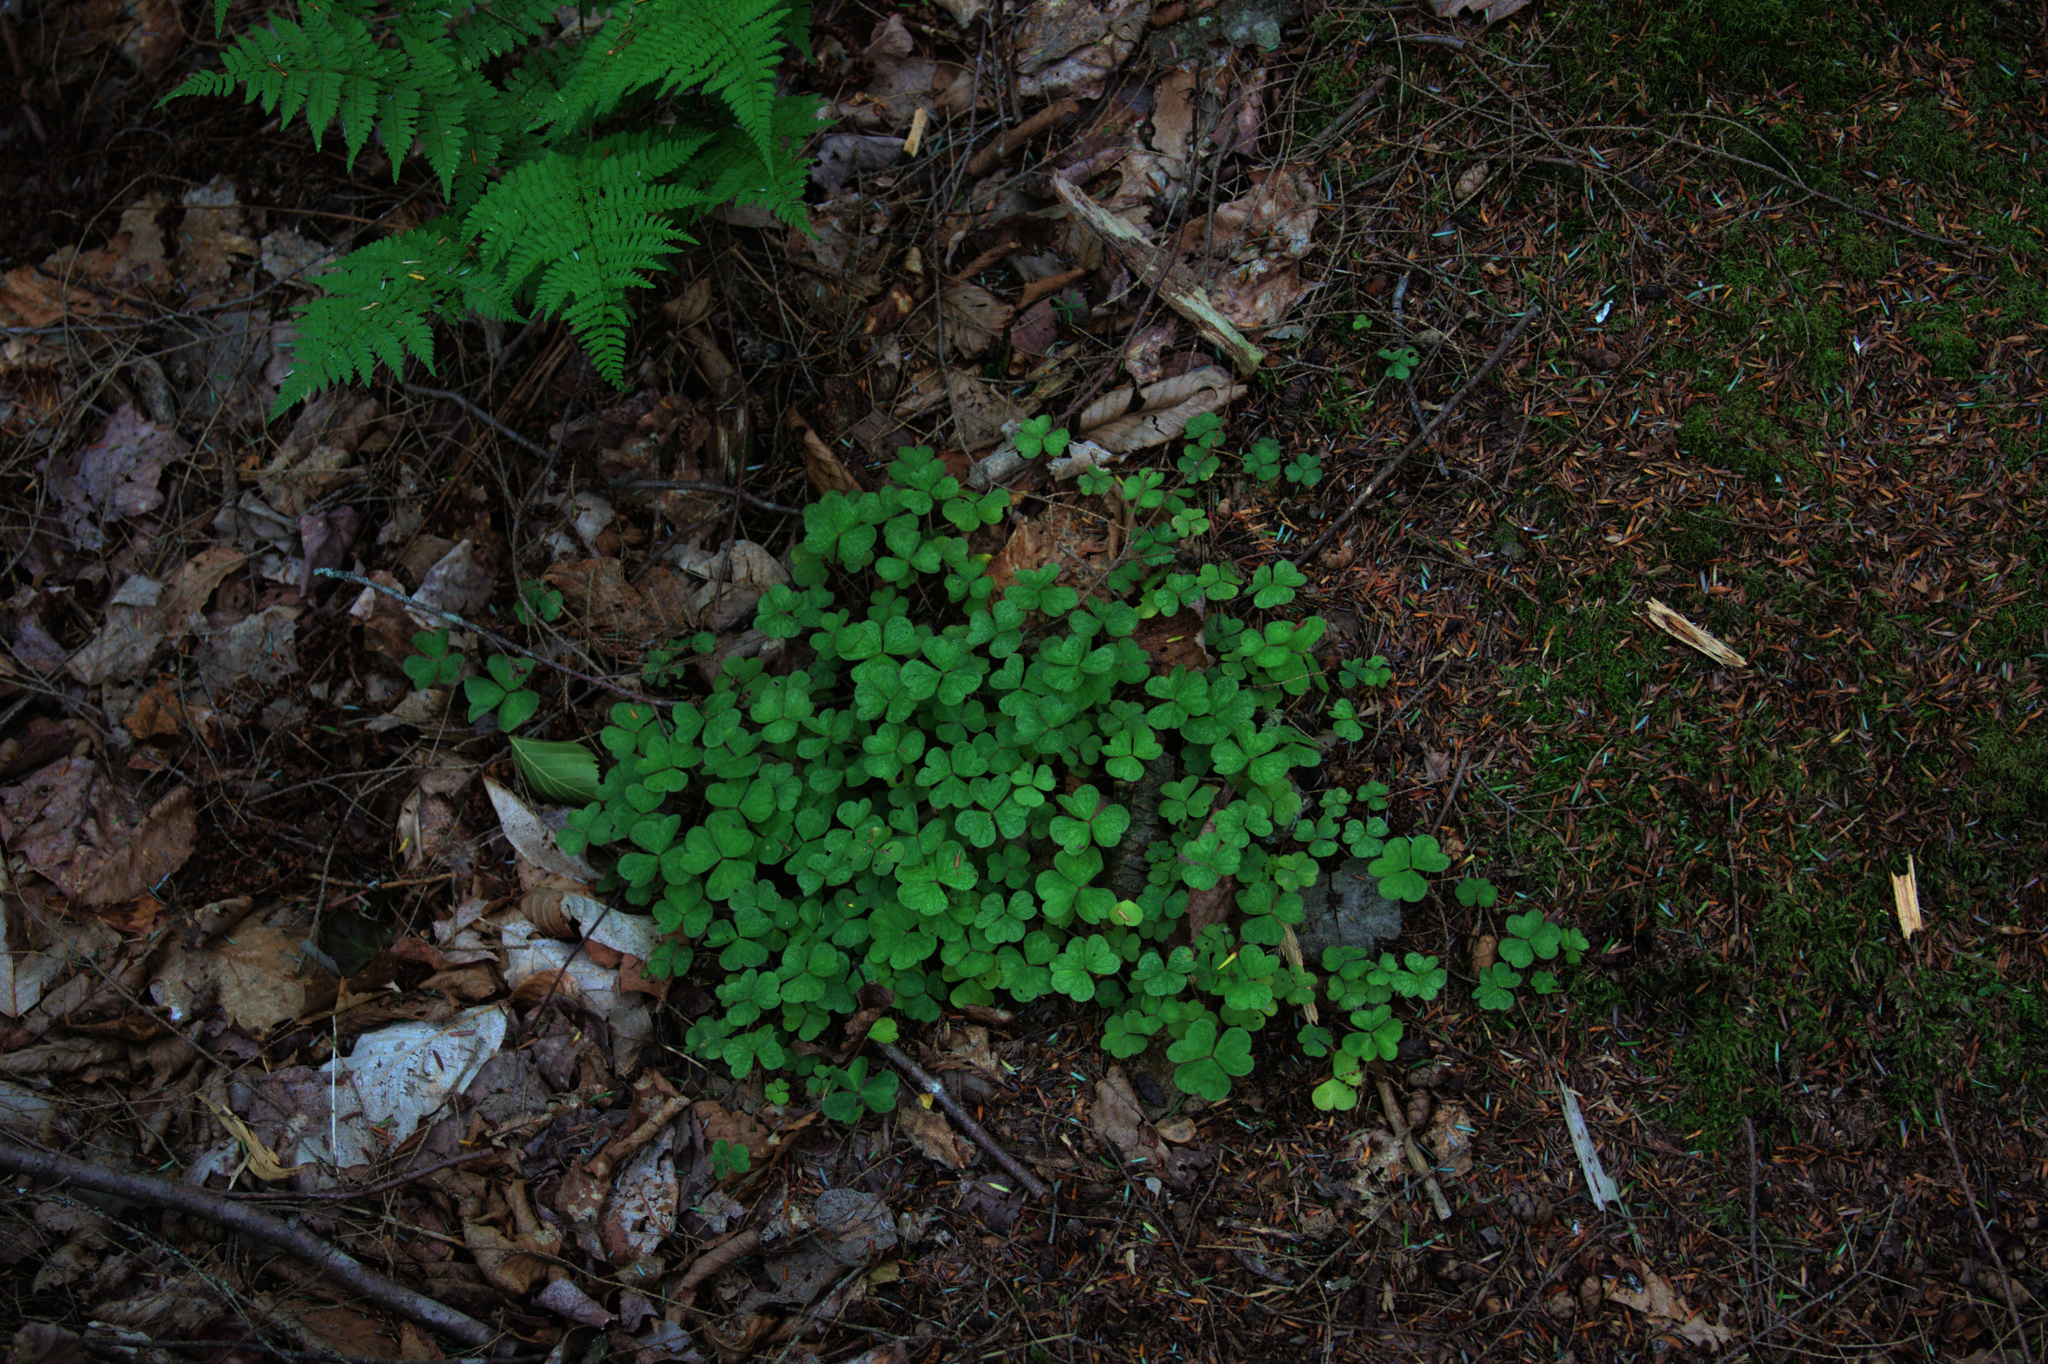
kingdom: Plantae
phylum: Tracheophyta
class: Magnoliopsida
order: Oxalidales
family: Oxalidaceae
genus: Oxalis
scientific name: Oxalis montana
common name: American wood-sorrel
